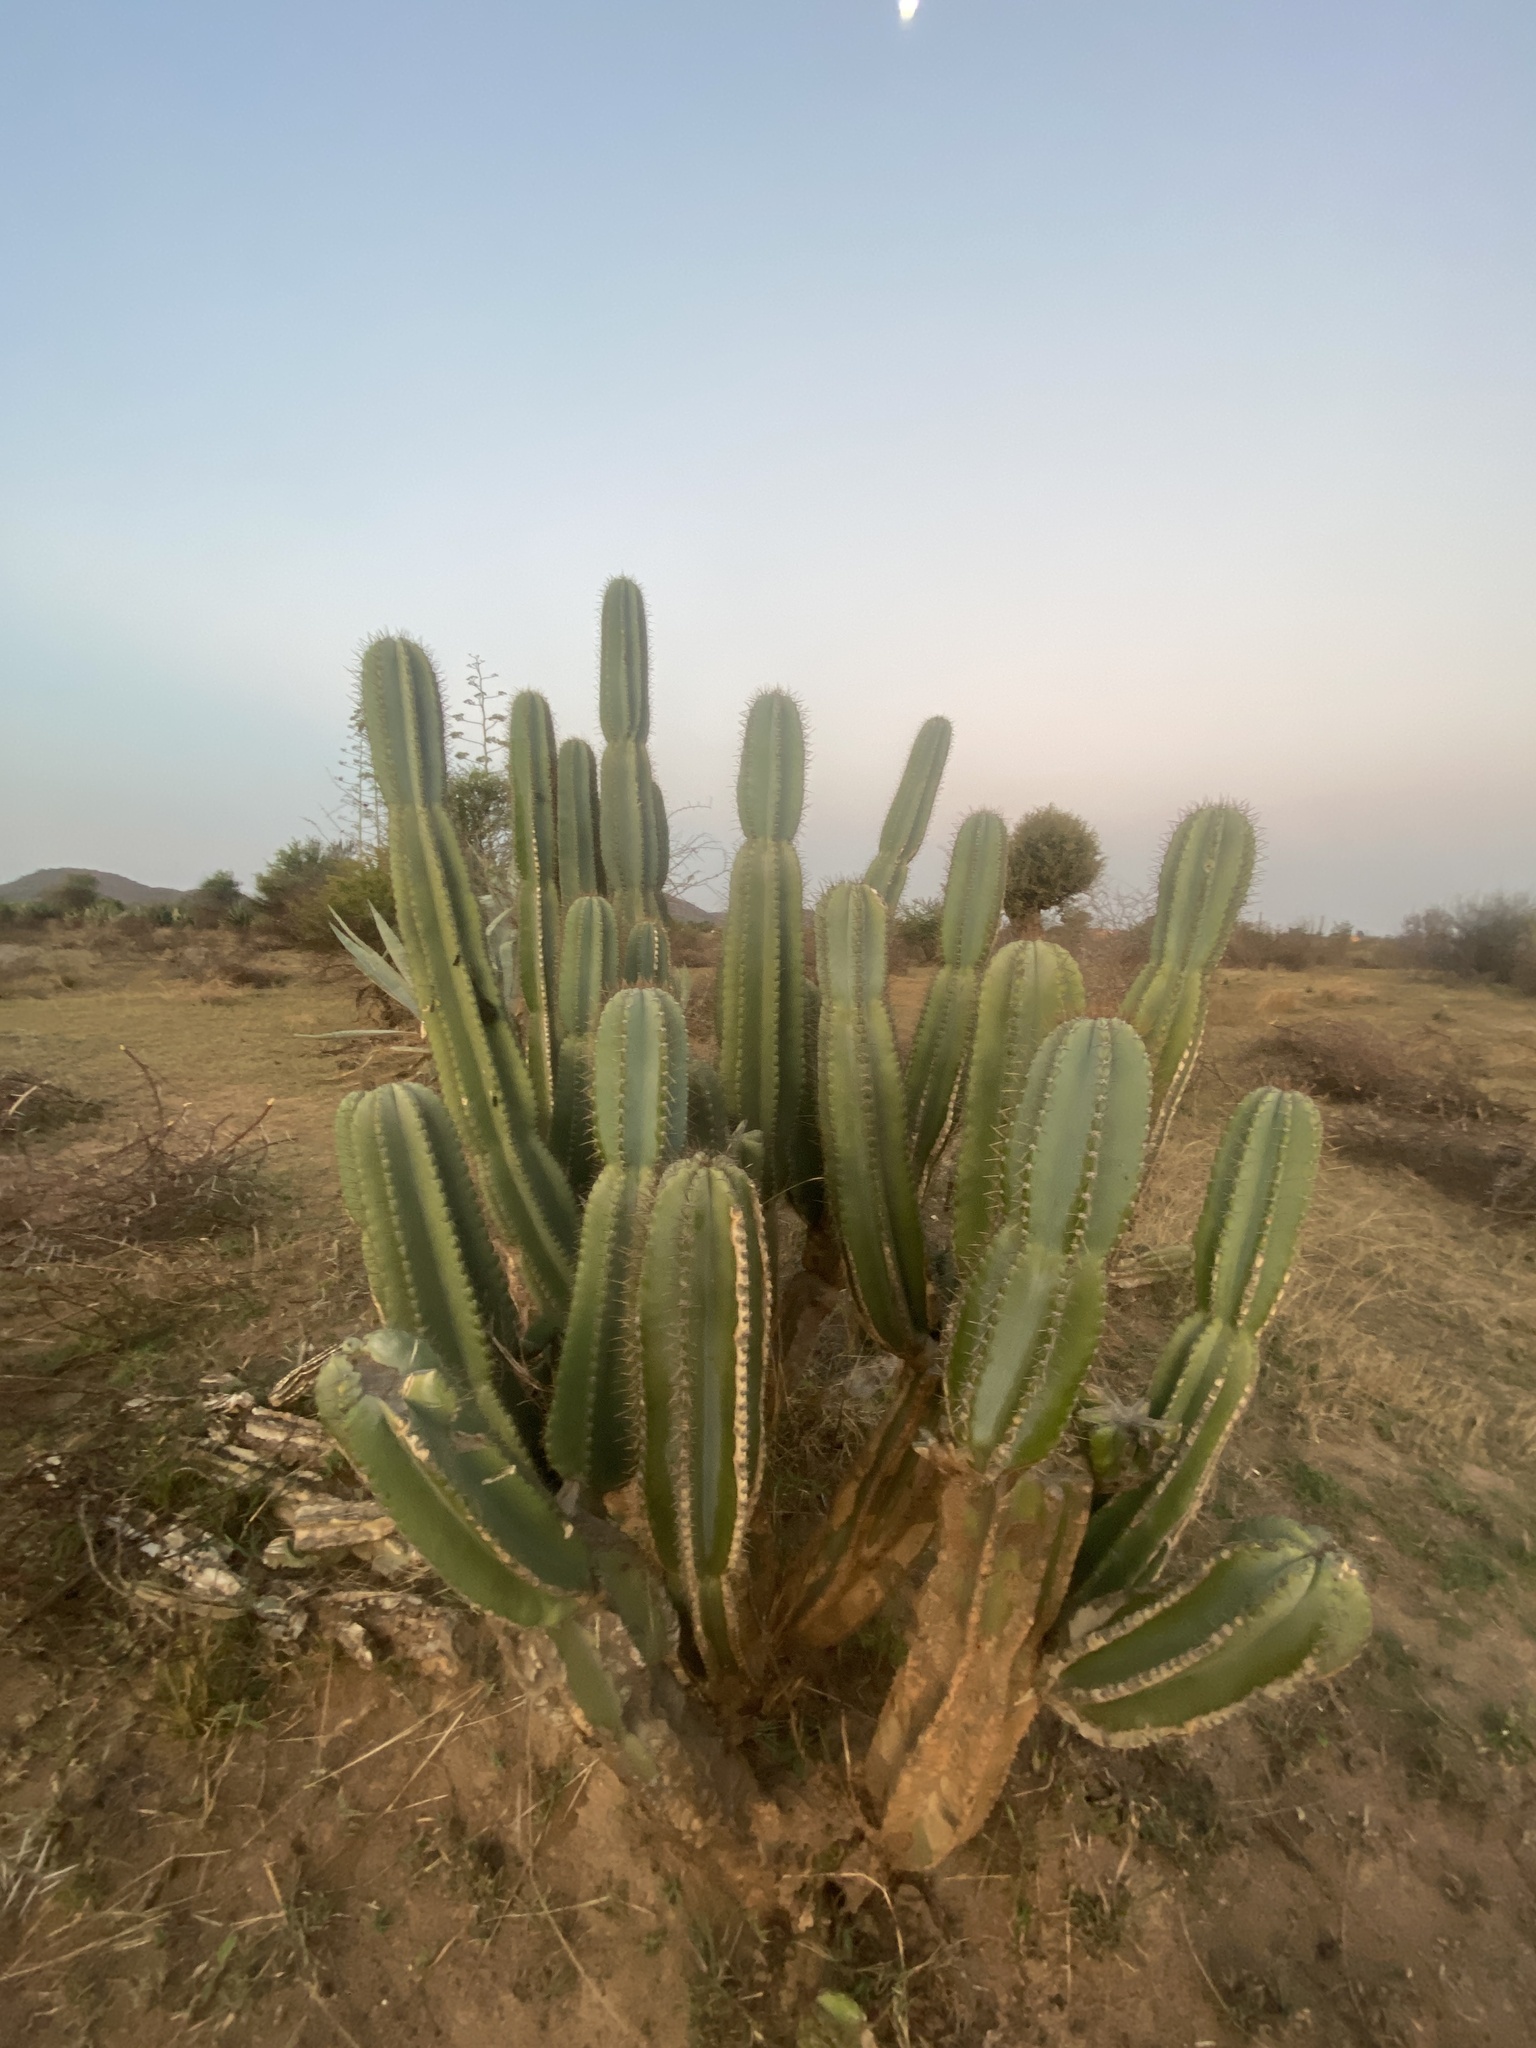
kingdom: Plantae
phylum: Tracheophyta
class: Magnoliopsida
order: Caryophyllales
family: Cactaceae
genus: Cereus
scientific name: Cereus jamacaru
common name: Queen-of-the-night
